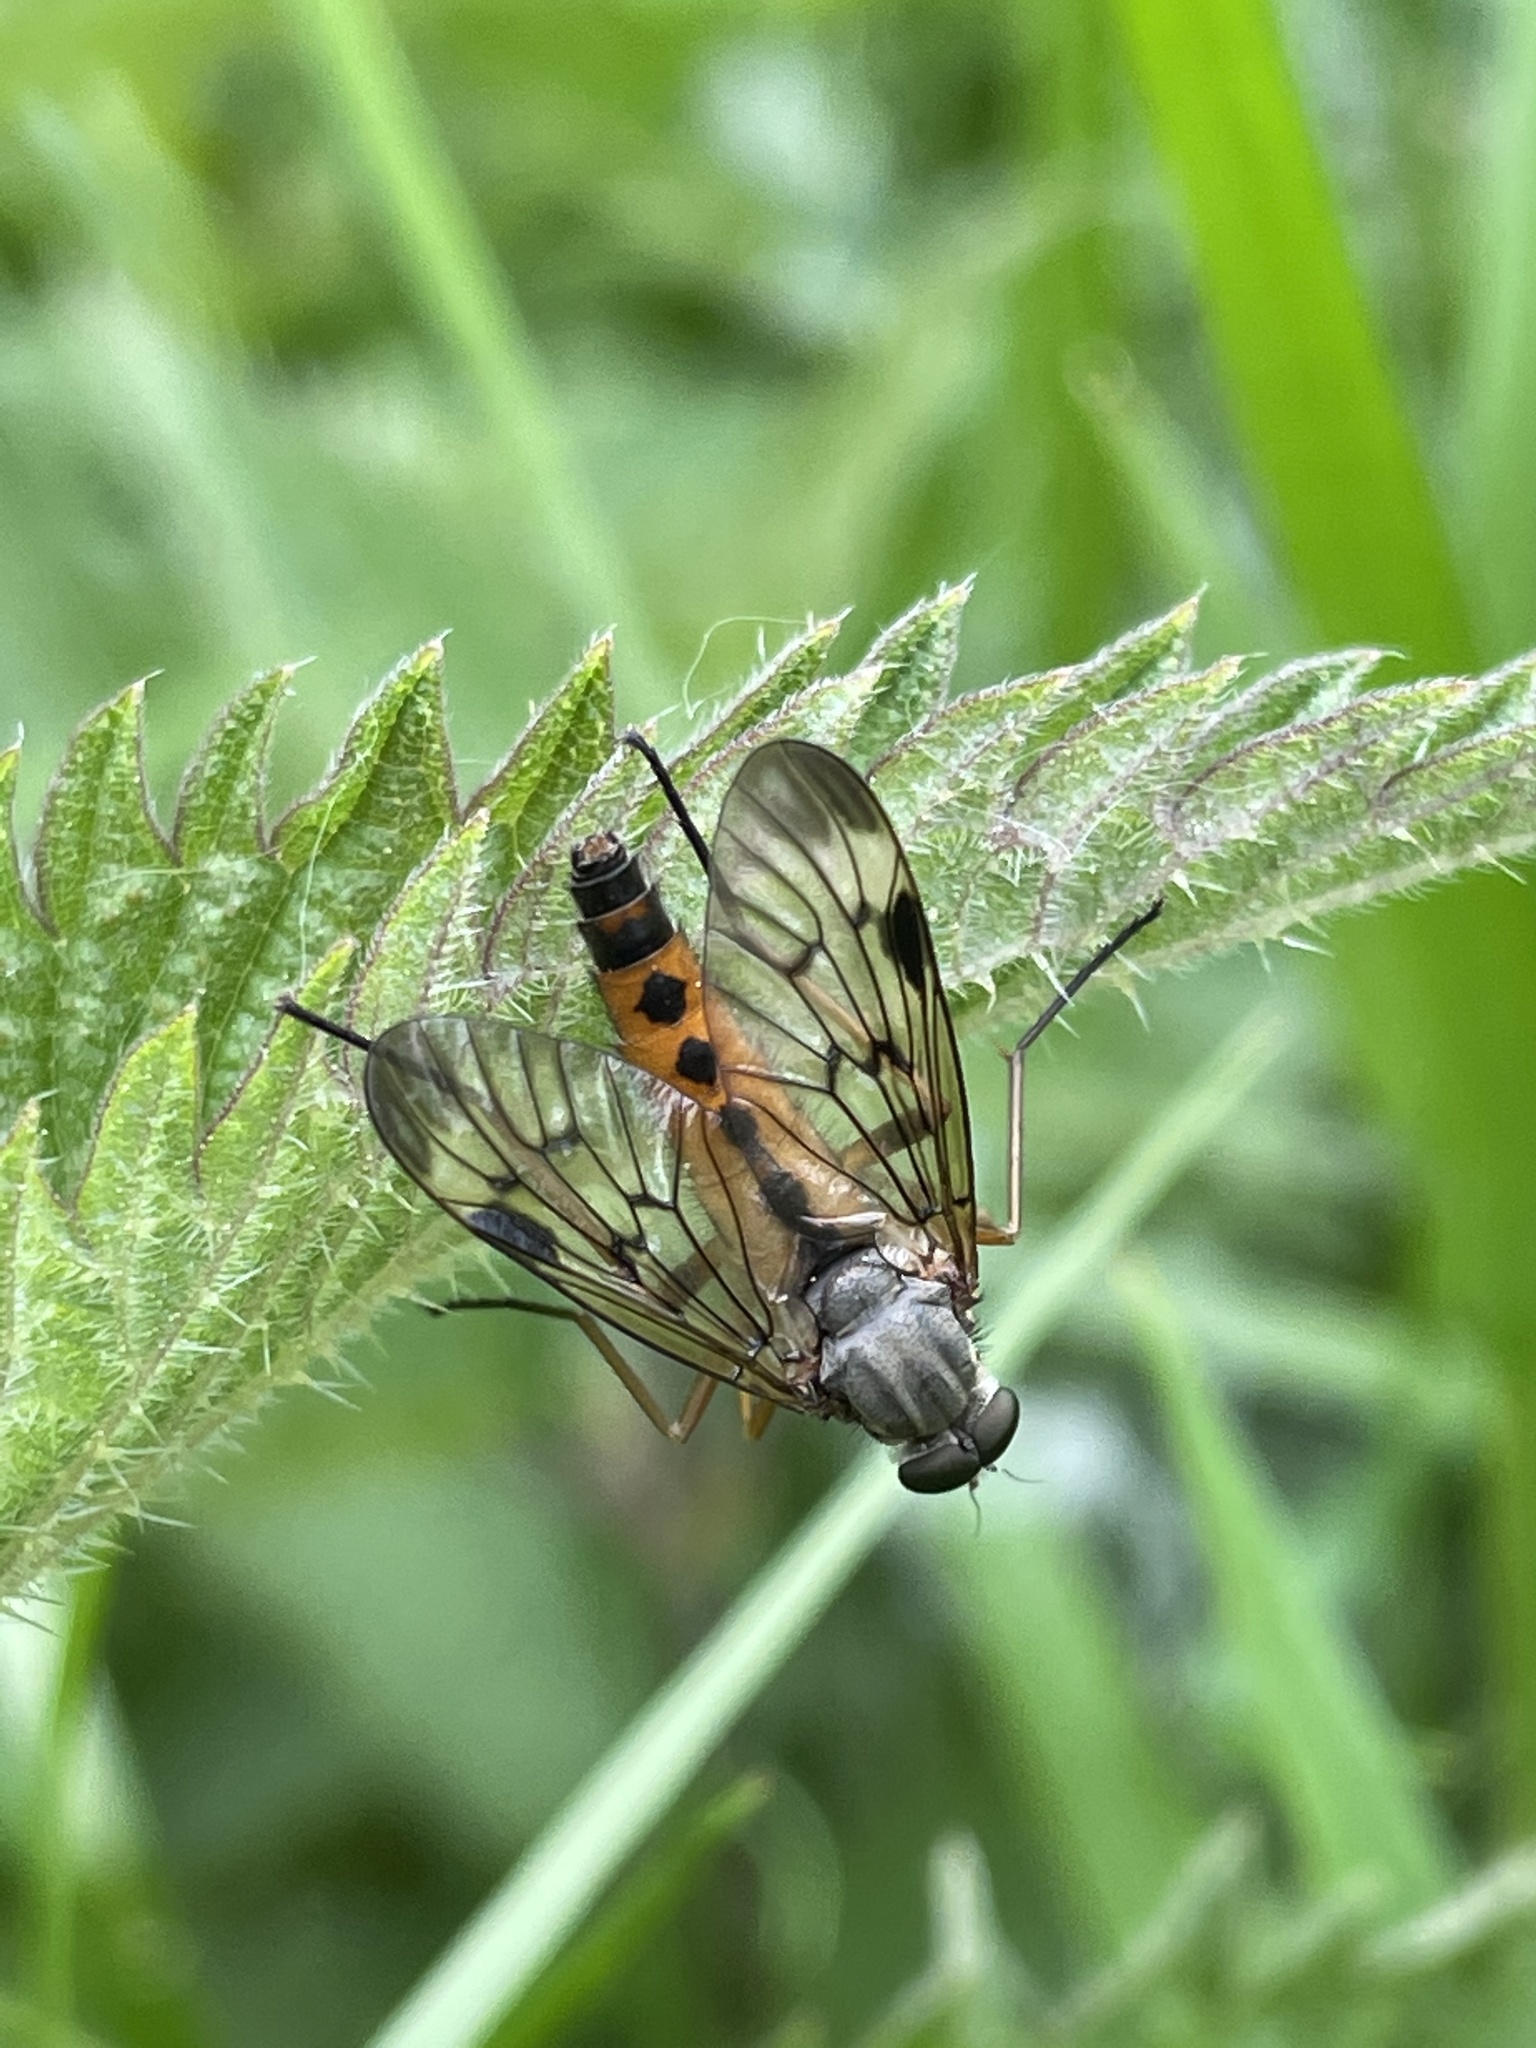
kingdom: Animalia
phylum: Arthropoda
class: Insecta
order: Diptera
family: Rhagionidae
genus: Rhagio
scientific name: Rhagio scolopacea
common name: Downlooker snipefly
